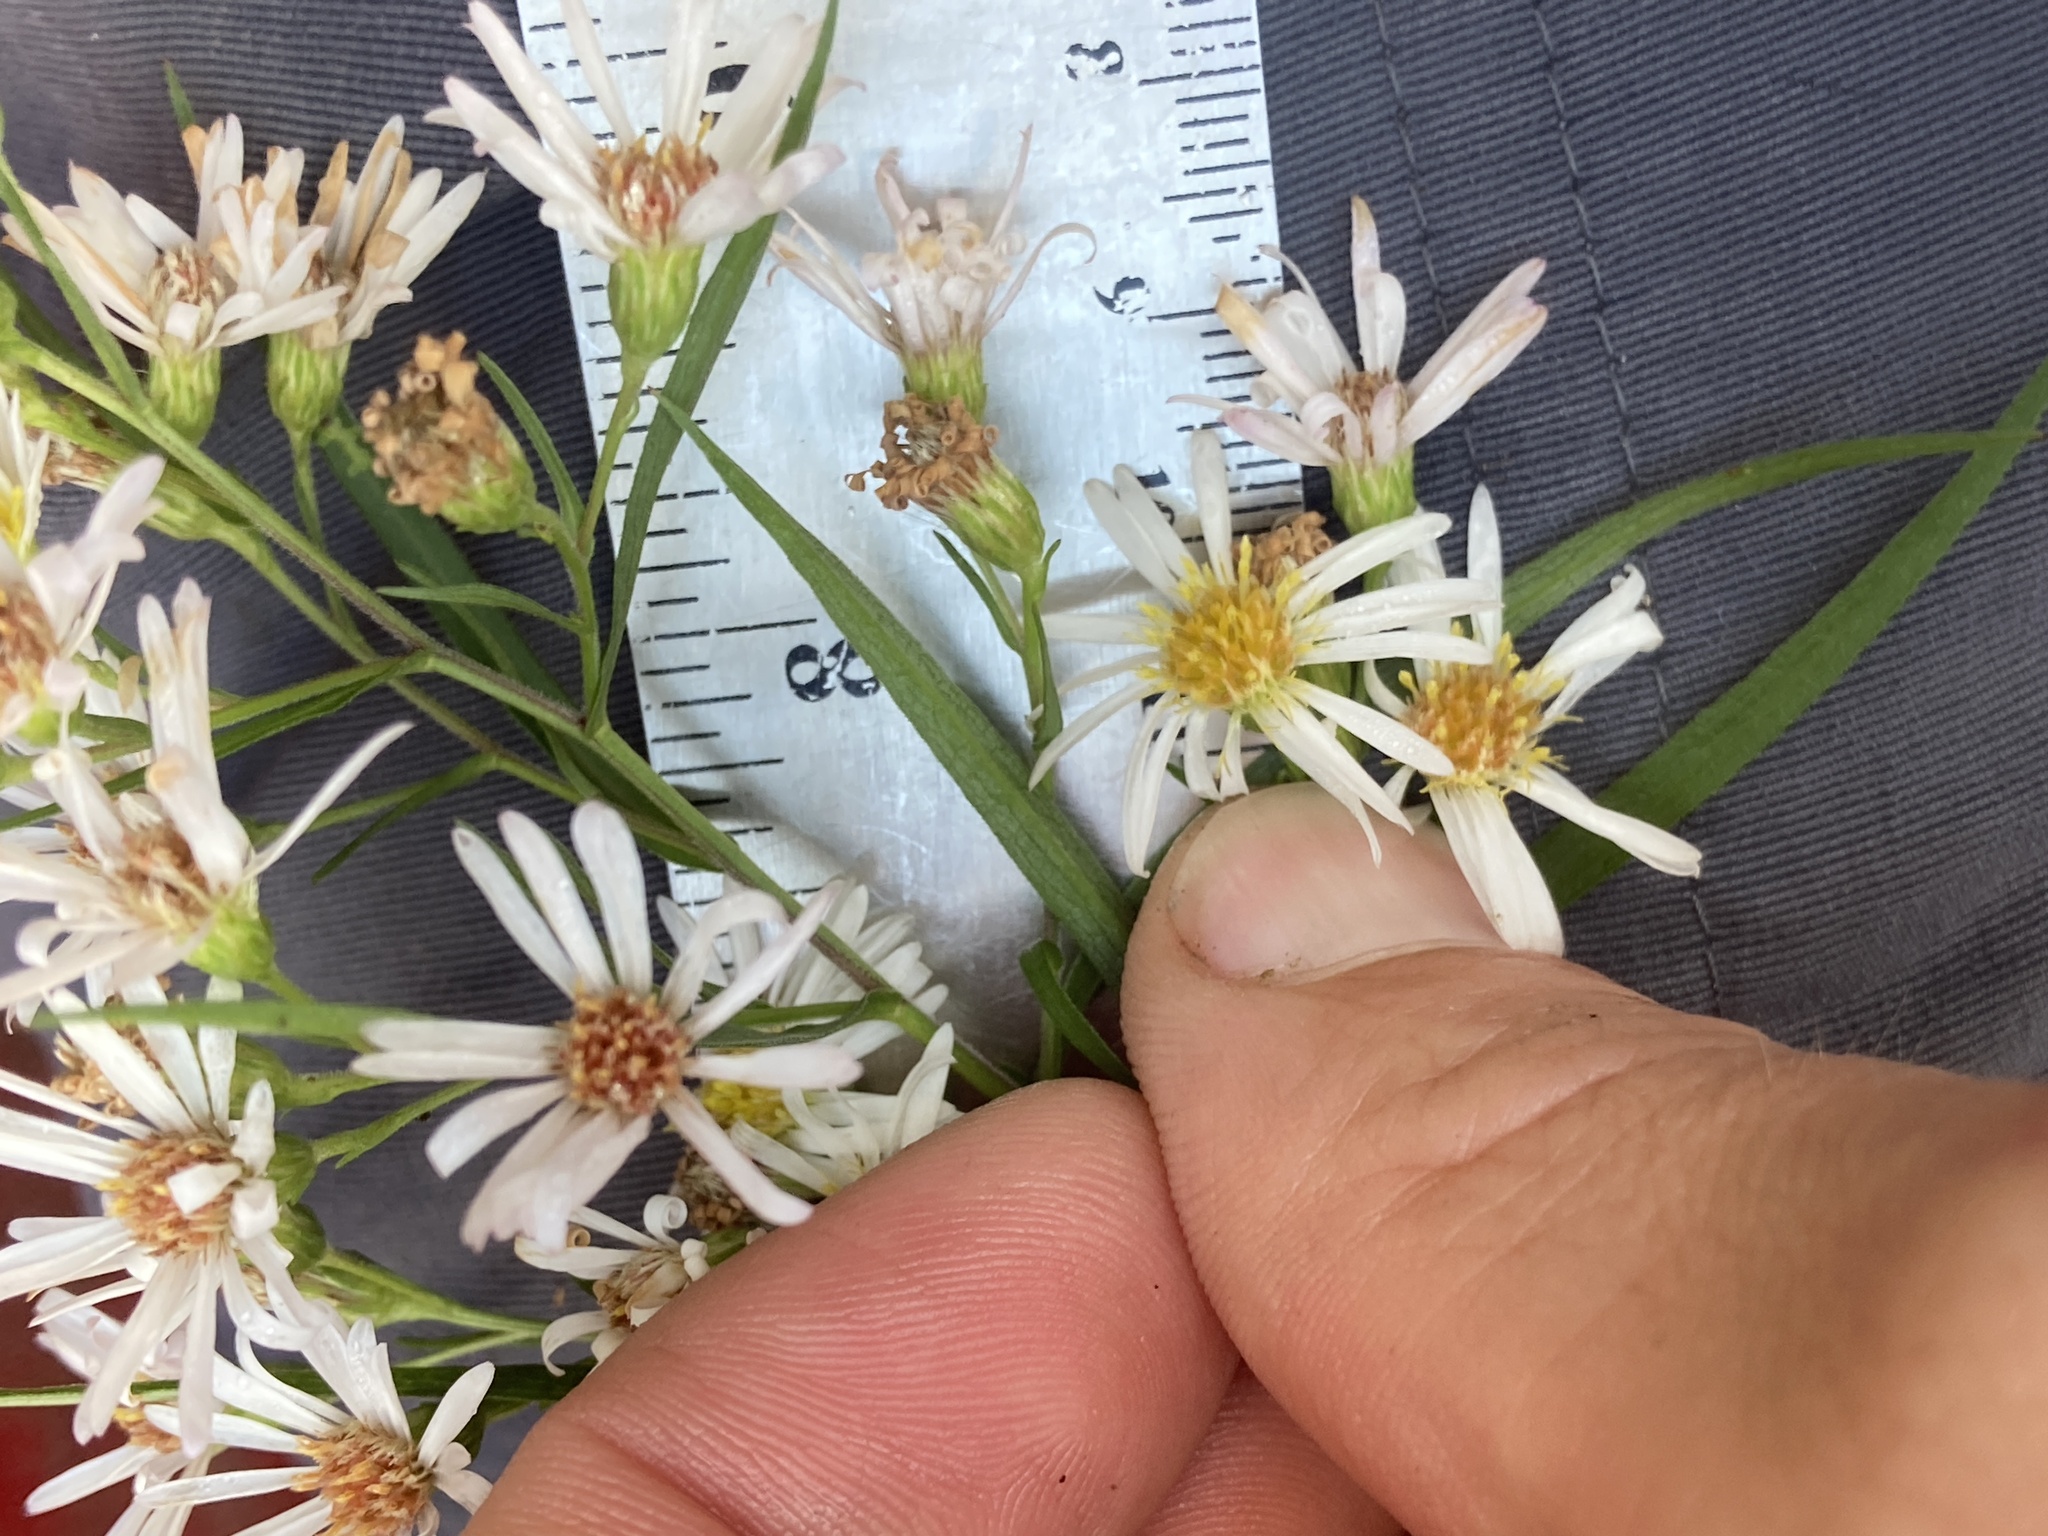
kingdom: Plantae
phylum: Tracheophyta
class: Magnoliopsida
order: Asterales
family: Asteraceae
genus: Symphyotrichum
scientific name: Symphyotrichum lanceolatum
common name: Panicled aster
